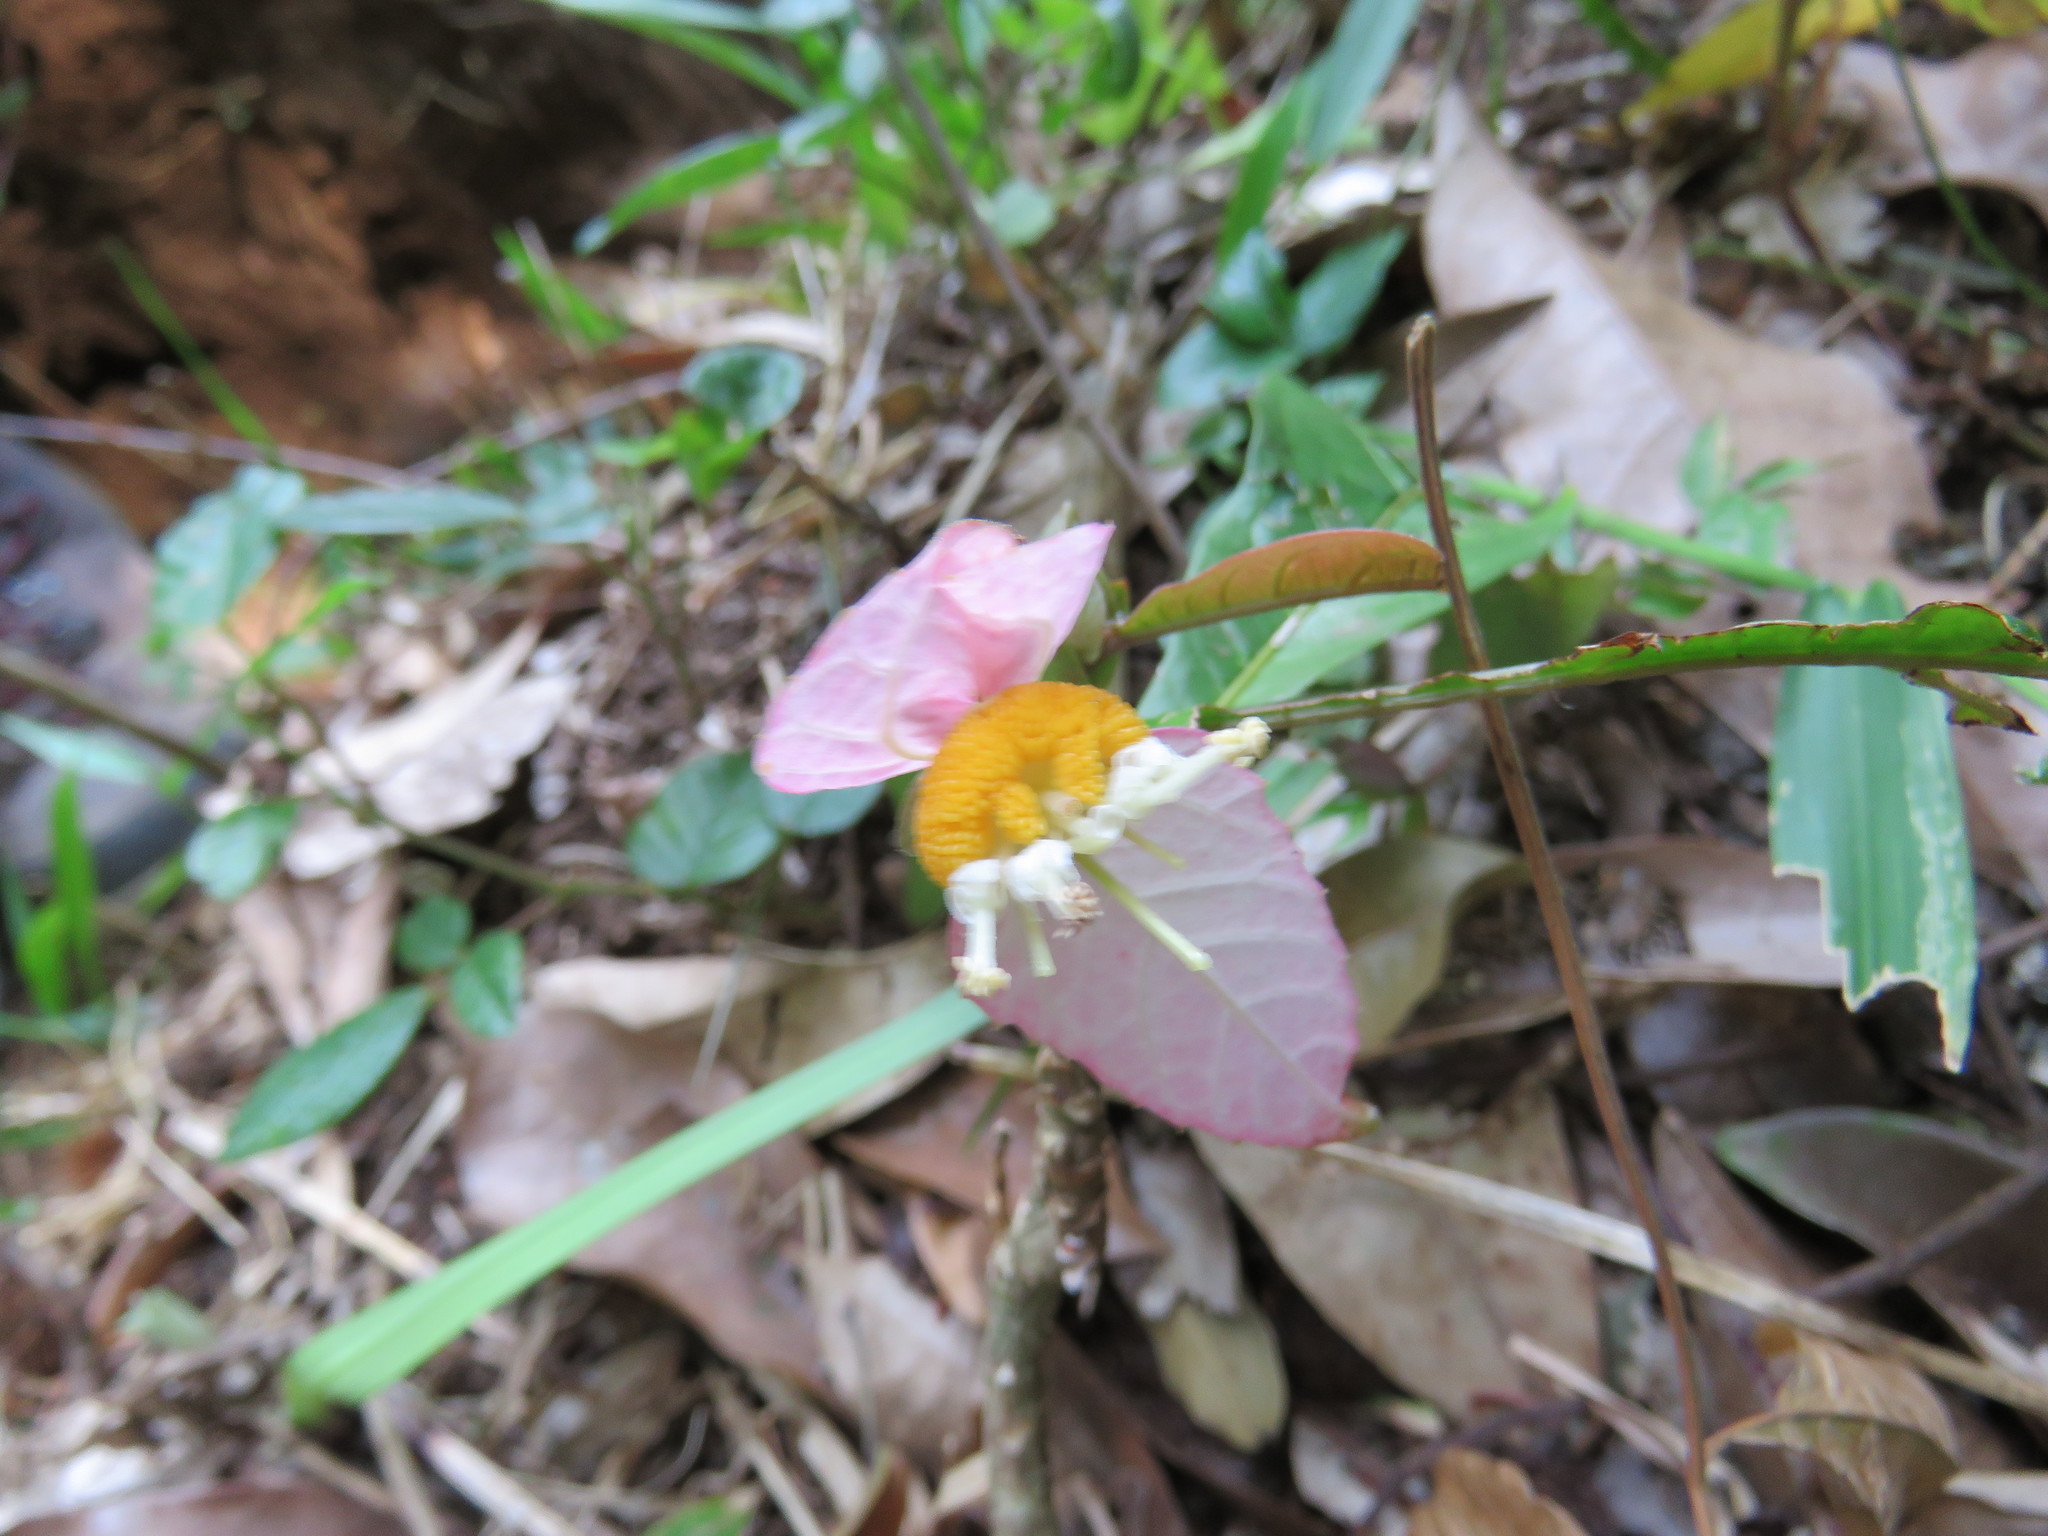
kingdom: Plantae
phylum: Tracheophyta
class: Magnoliopsida
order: Malpighiales
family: Euphorbiaceae
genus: Dalechampia
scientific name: Dalechampia spathulata
